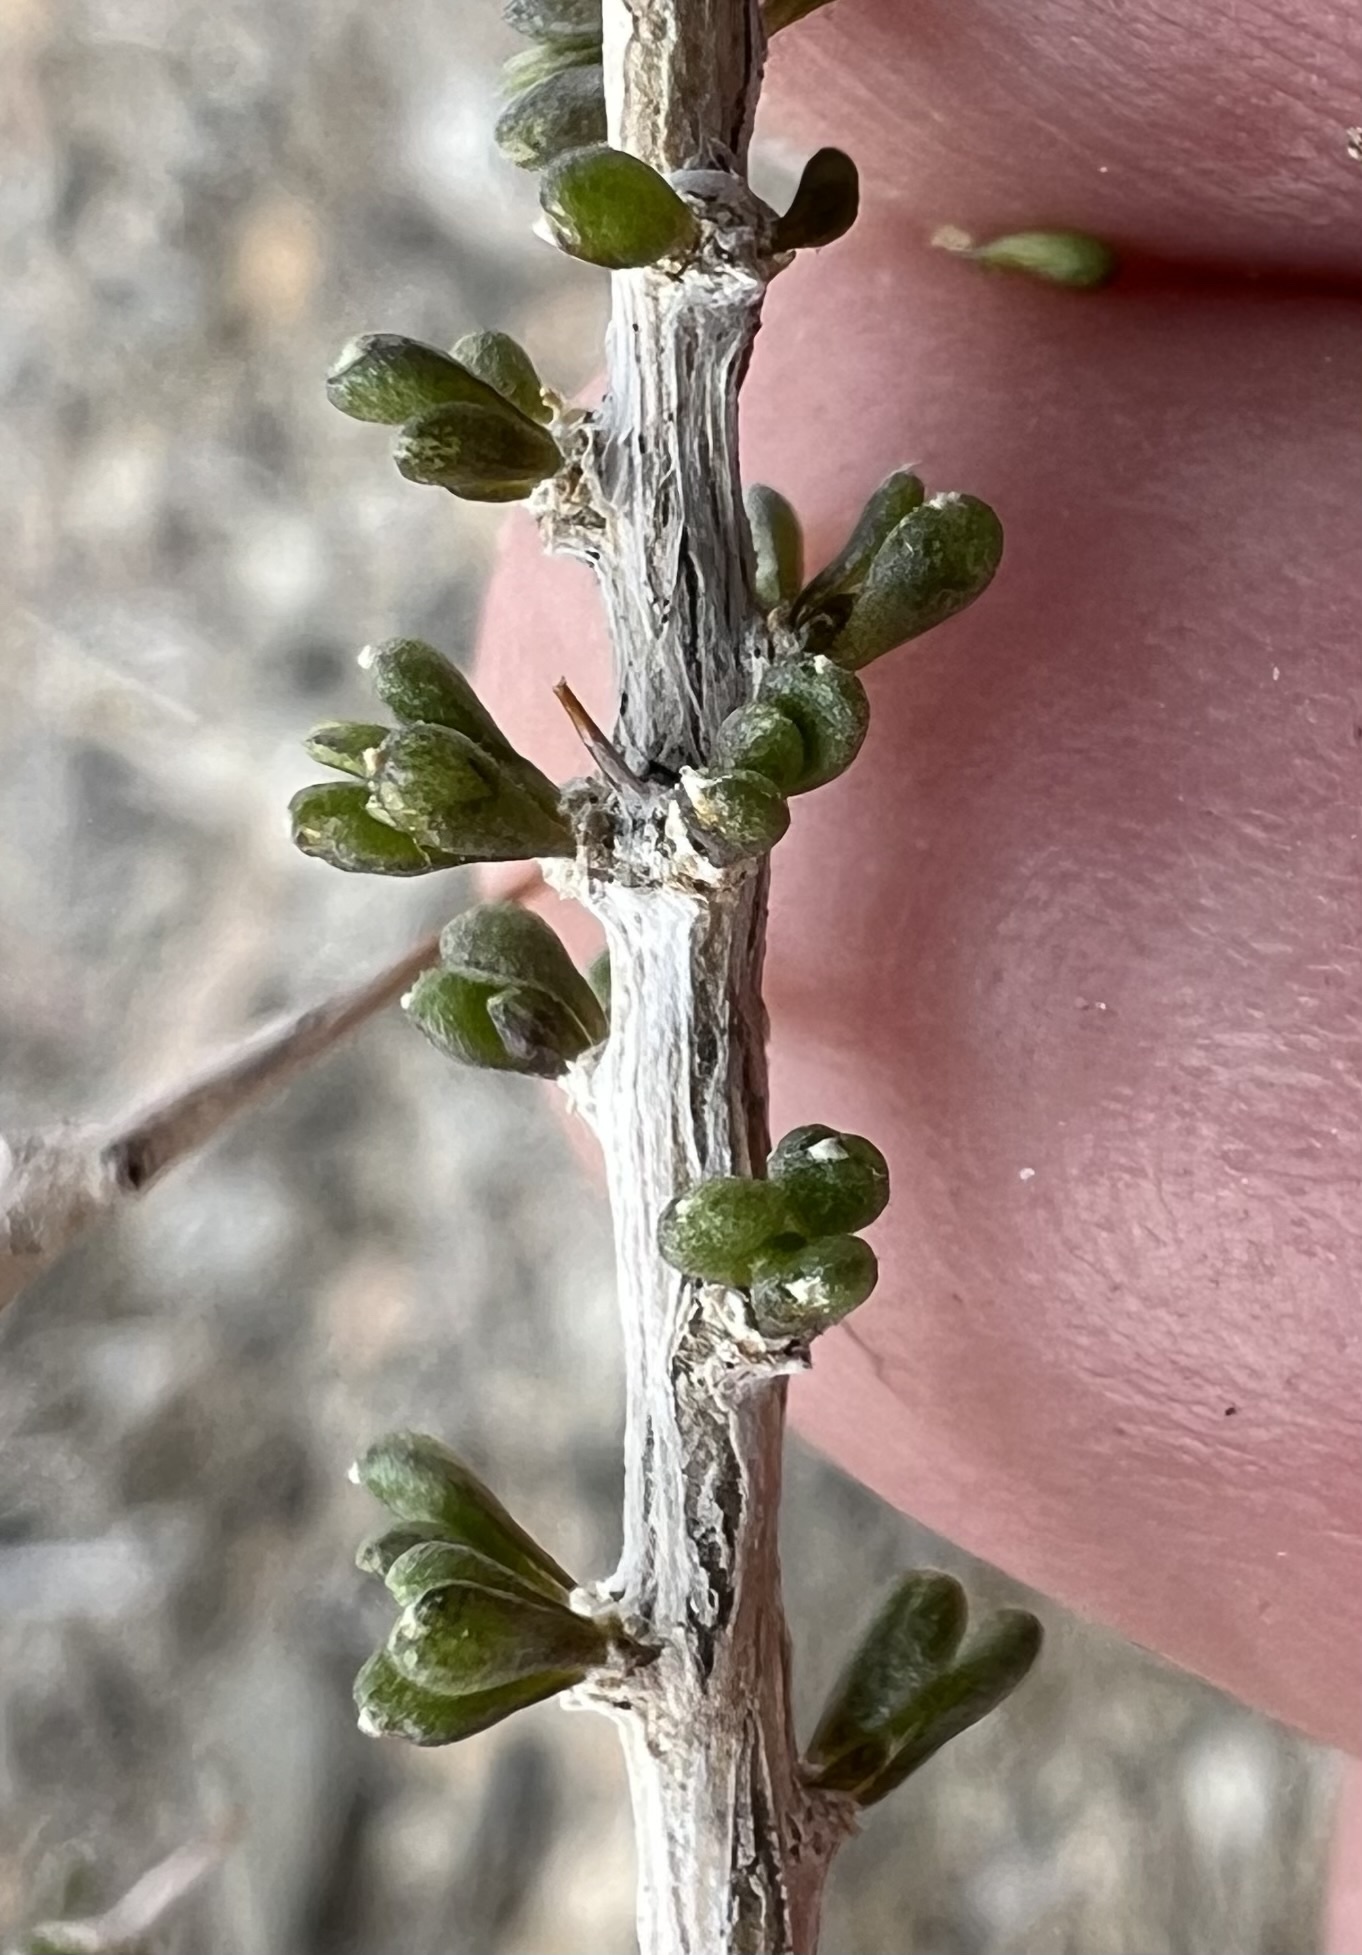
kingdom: Plantae
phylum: Tracheophyta
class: Magnoliopsida
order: Solanales
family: Solanaceae
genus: Lycium
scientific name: Lycium andersonii
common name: Water-jacket
